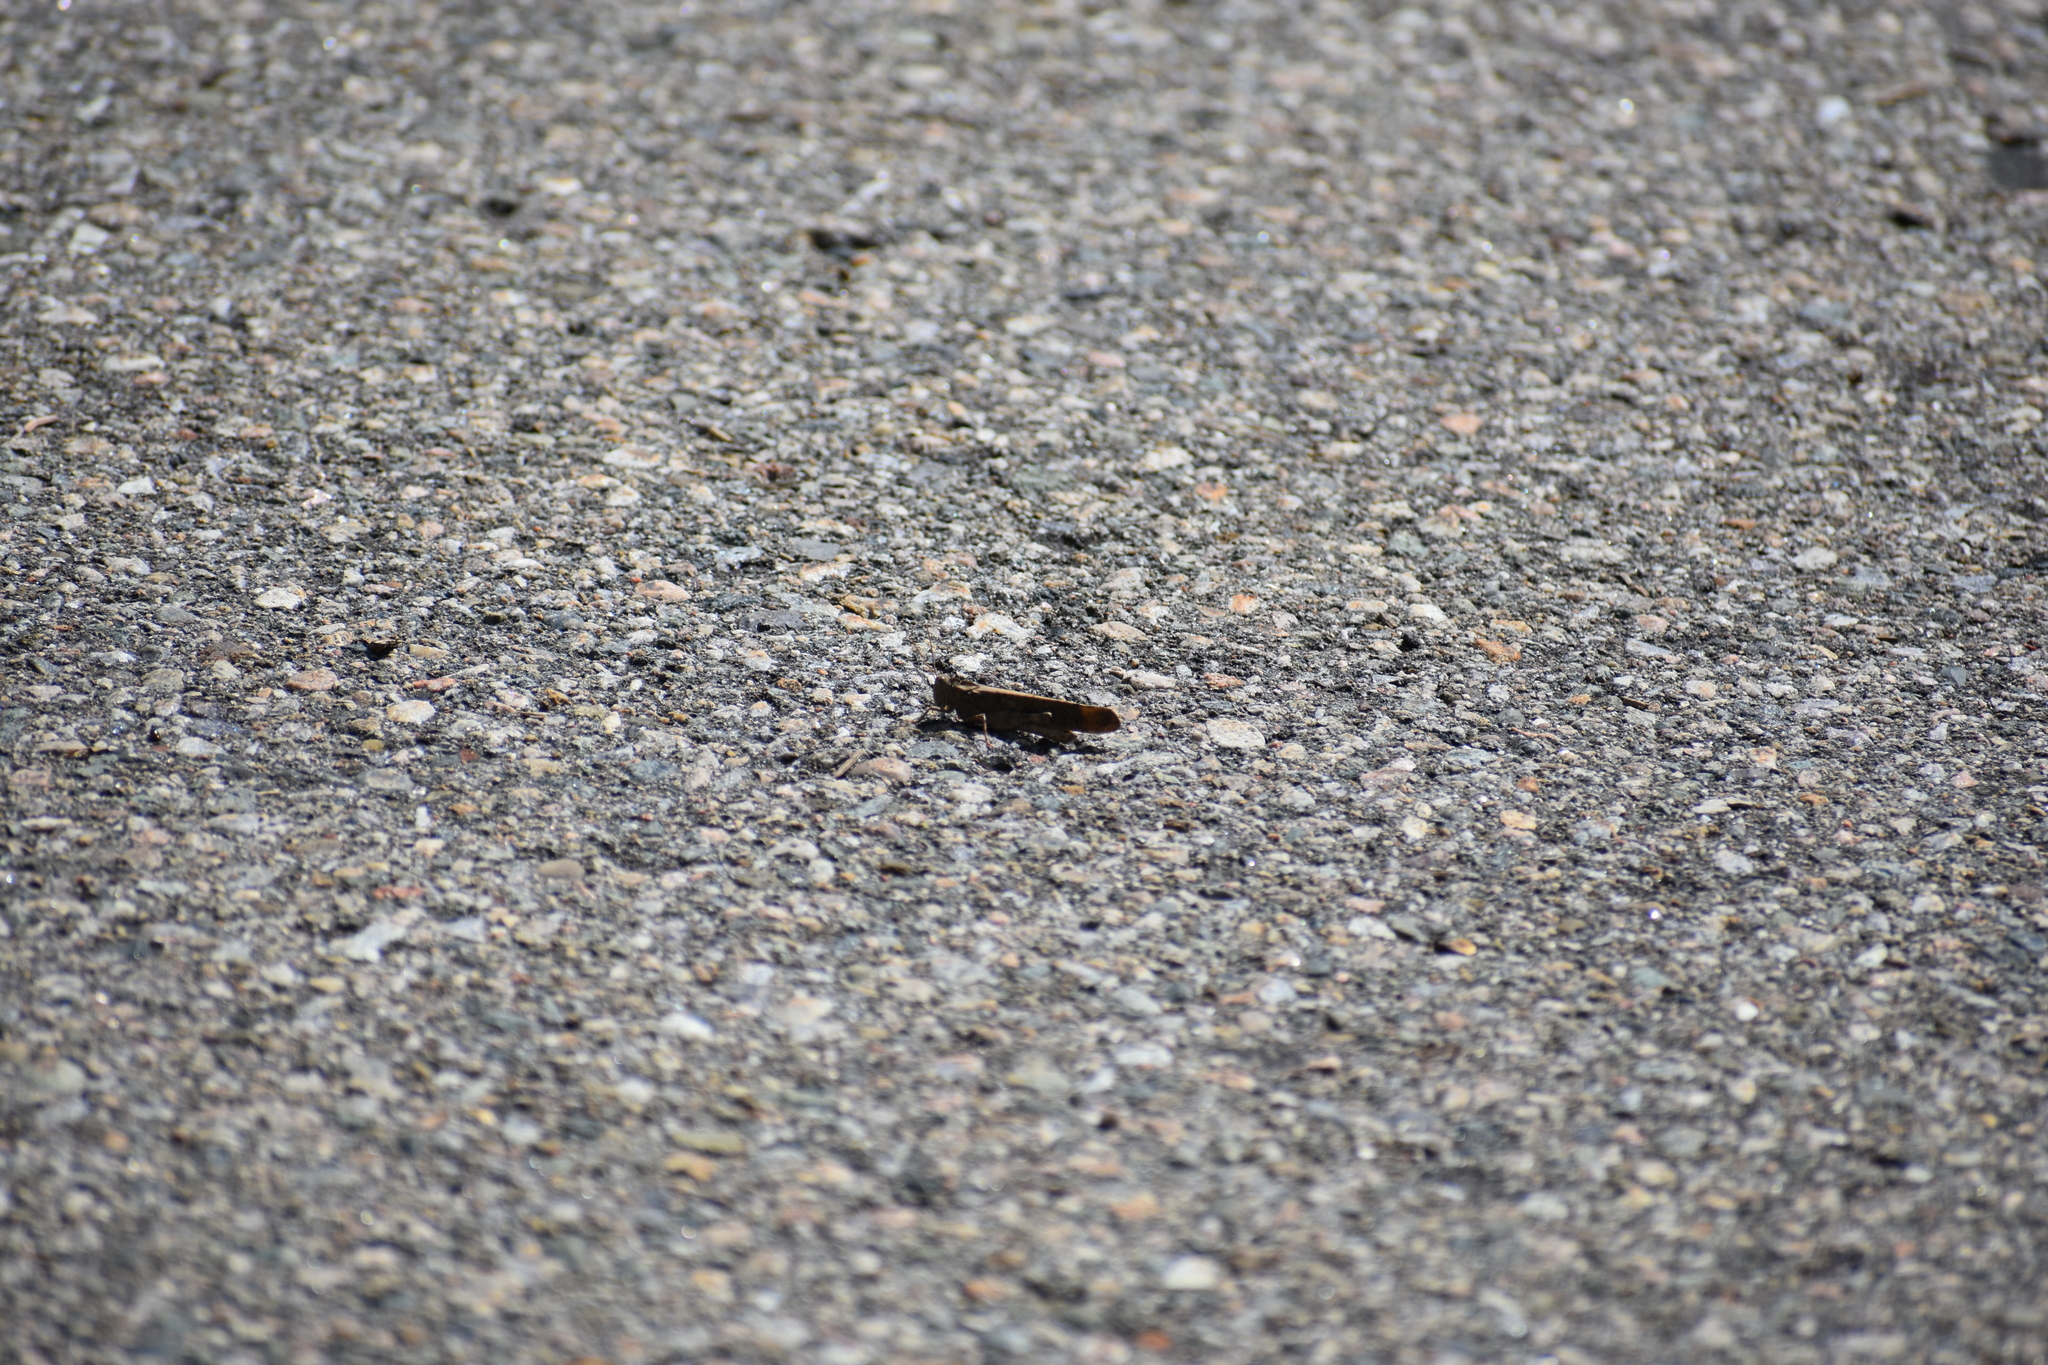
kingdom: Animalia
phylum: Arthropoda
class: Insecta
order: Orthoptera
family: Acrididae
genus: Dissosteira
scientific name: Dissosteira carolina
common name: Carolina grasshopper
